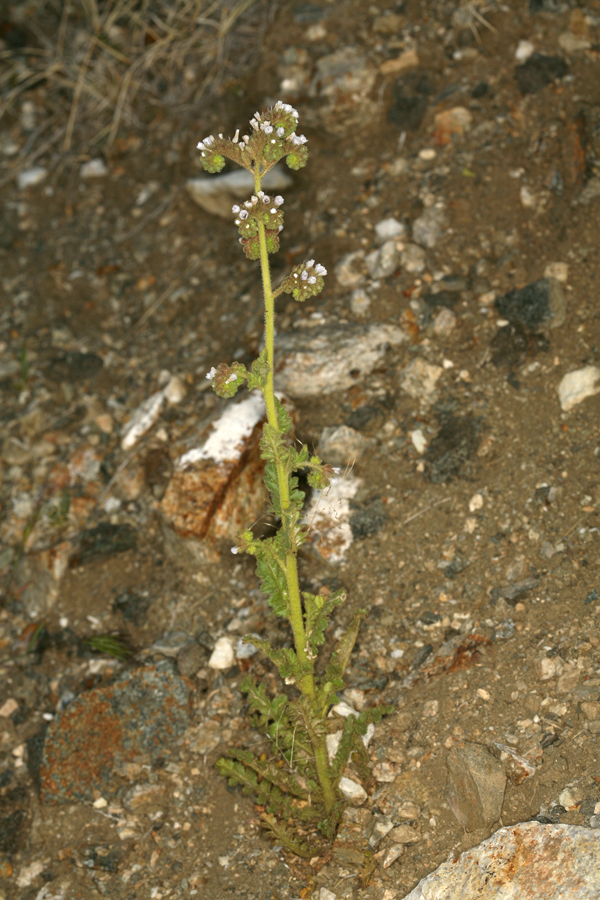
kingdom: Plantae
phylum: Tracheophyta
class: Magnoliopsida
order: Boraginales
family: Hydrophyllaceae
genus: Phacelia
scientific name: Phacelia anelsonii
